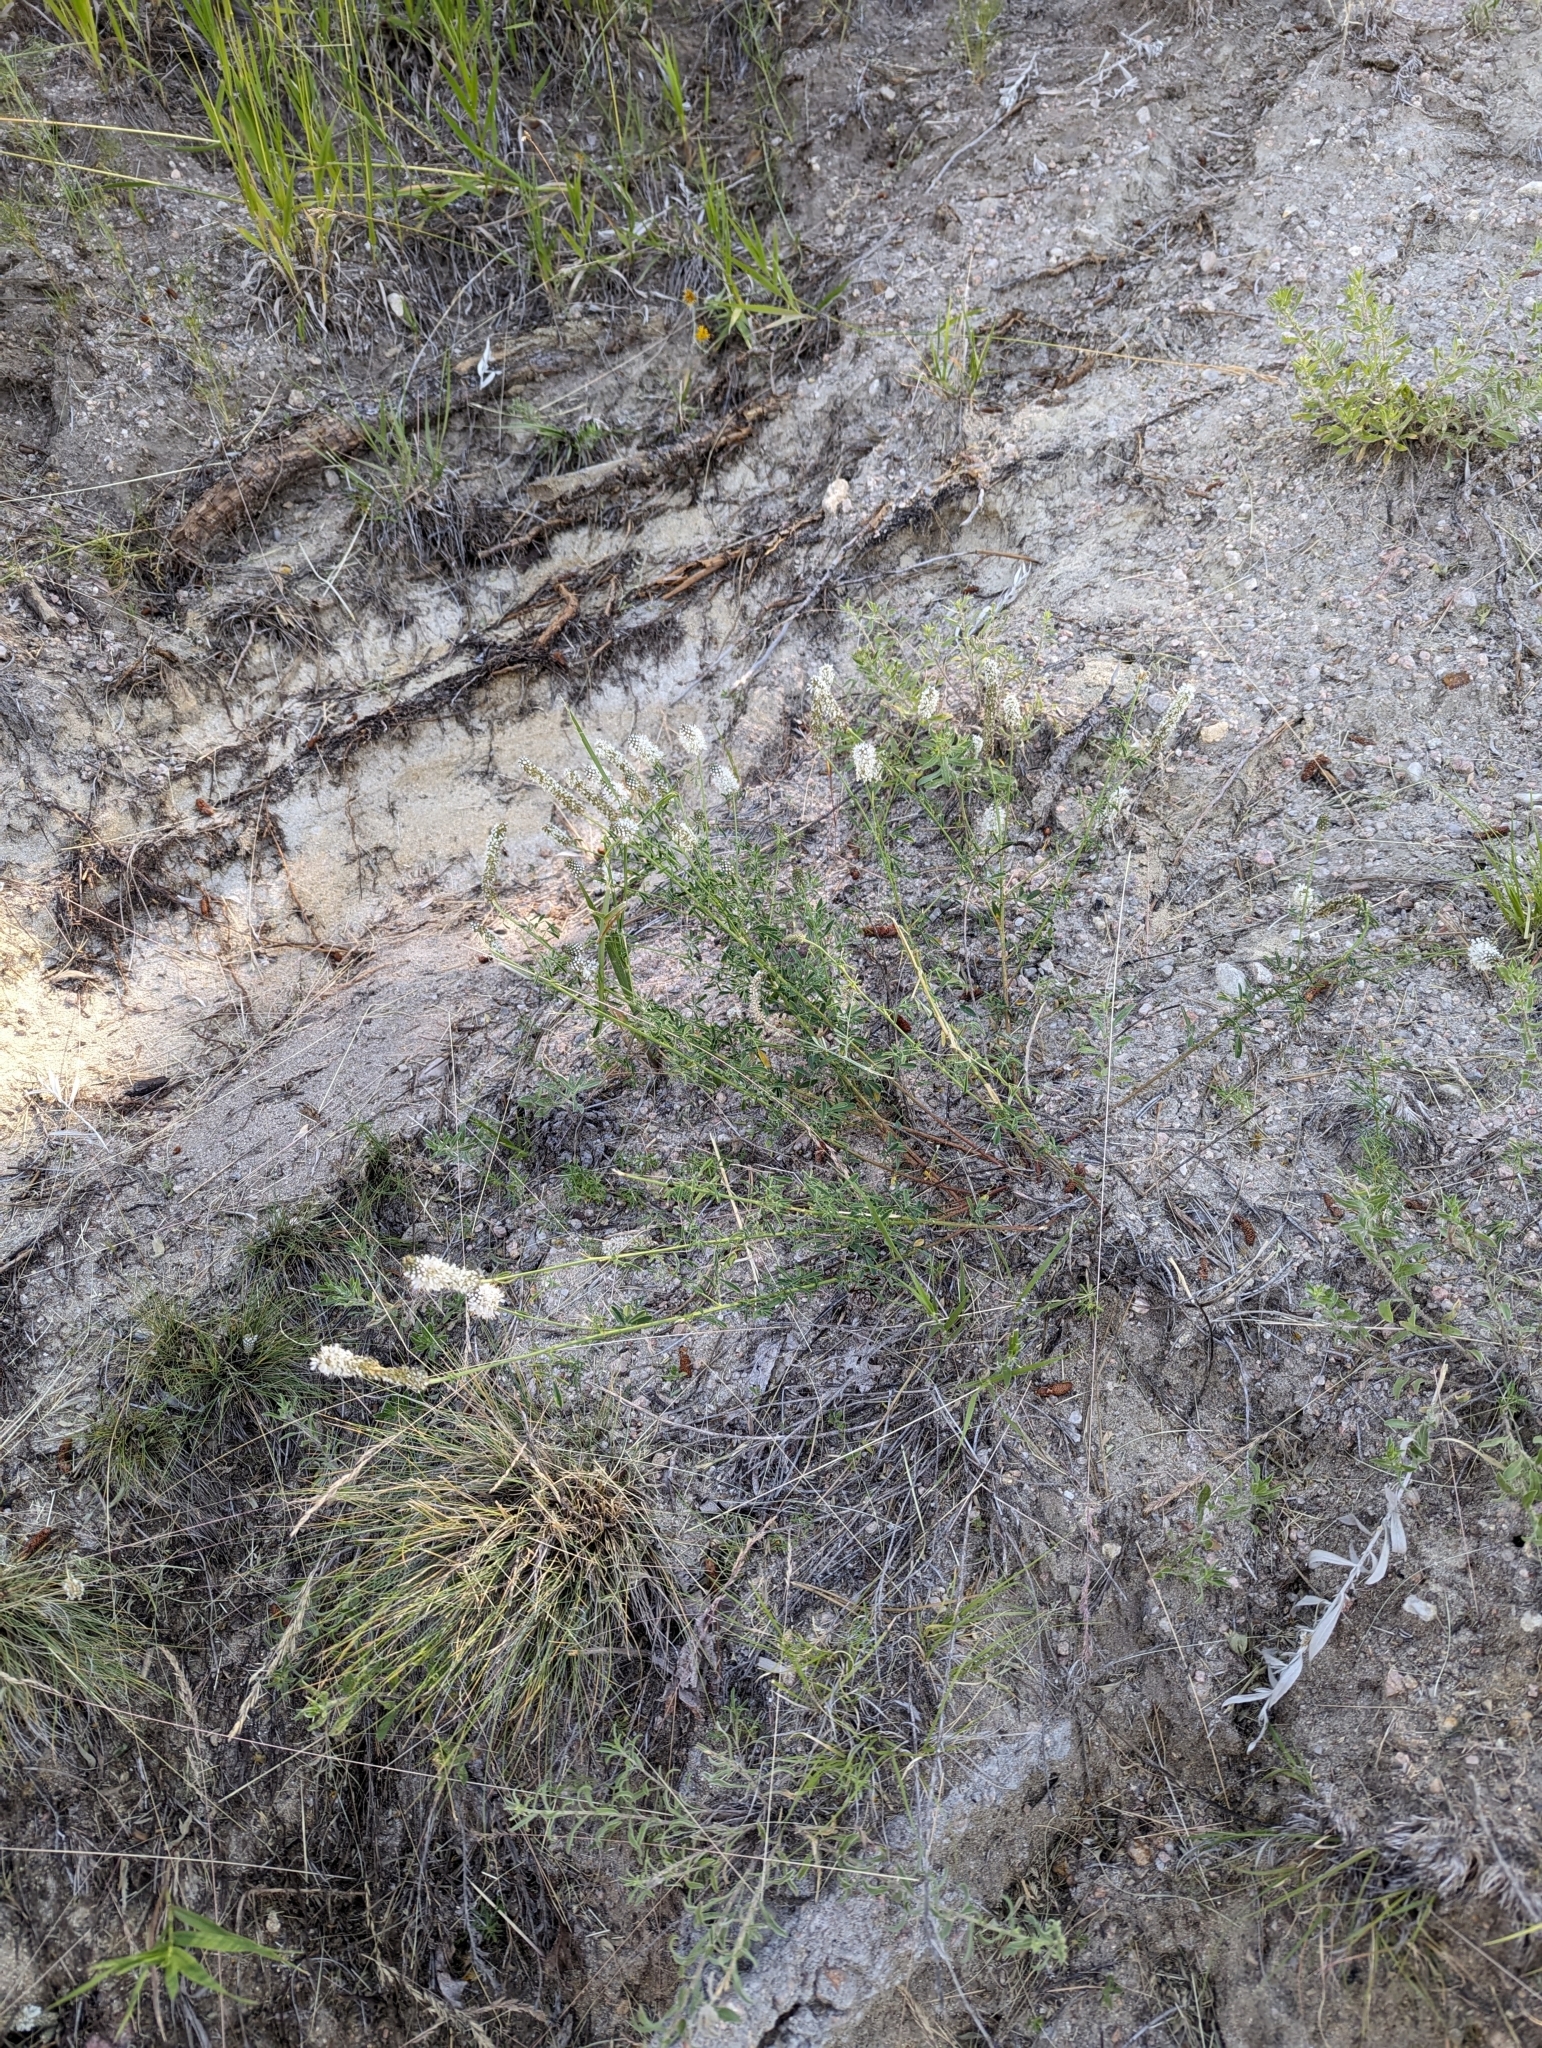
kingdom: Plantae
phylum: Tracheophyta
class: Magnoliopsida
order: Fabales
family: Fabaceae
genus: Dalea
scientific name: Dalea candida
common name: White prairie-clover
